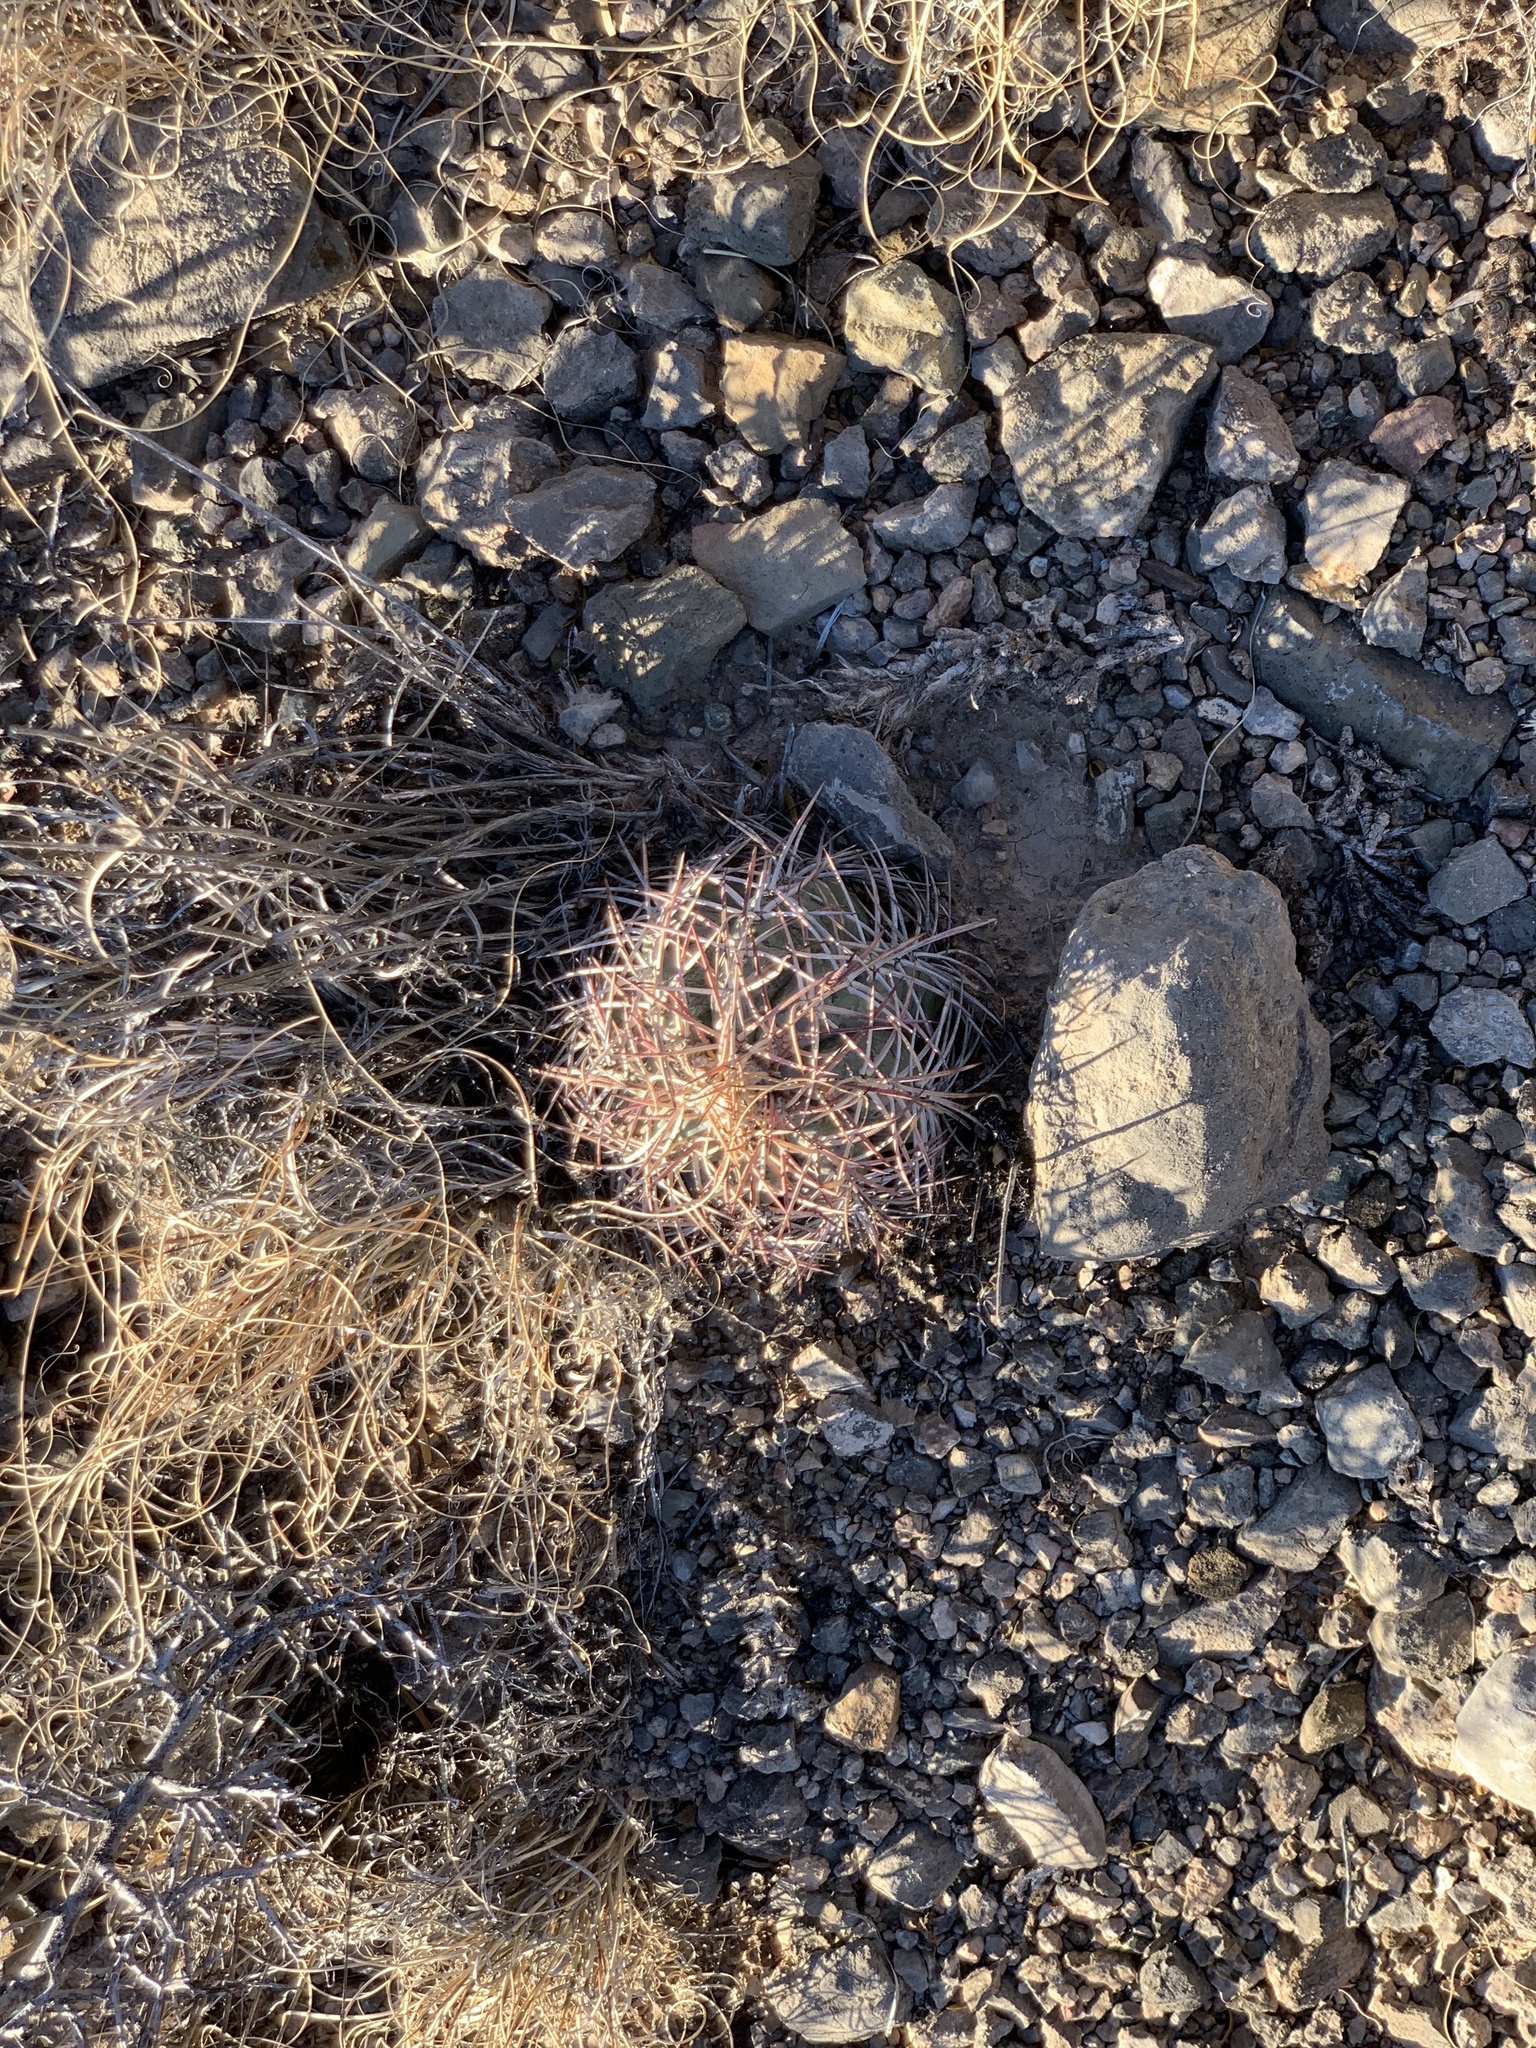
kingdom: Plantae
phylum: Tracheophyta
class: Magnoliopsida
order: Caryophyllales
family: Cactaceae
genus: Echinocactus
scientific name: Echinocactus horizonthalonius
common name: Devilshead
